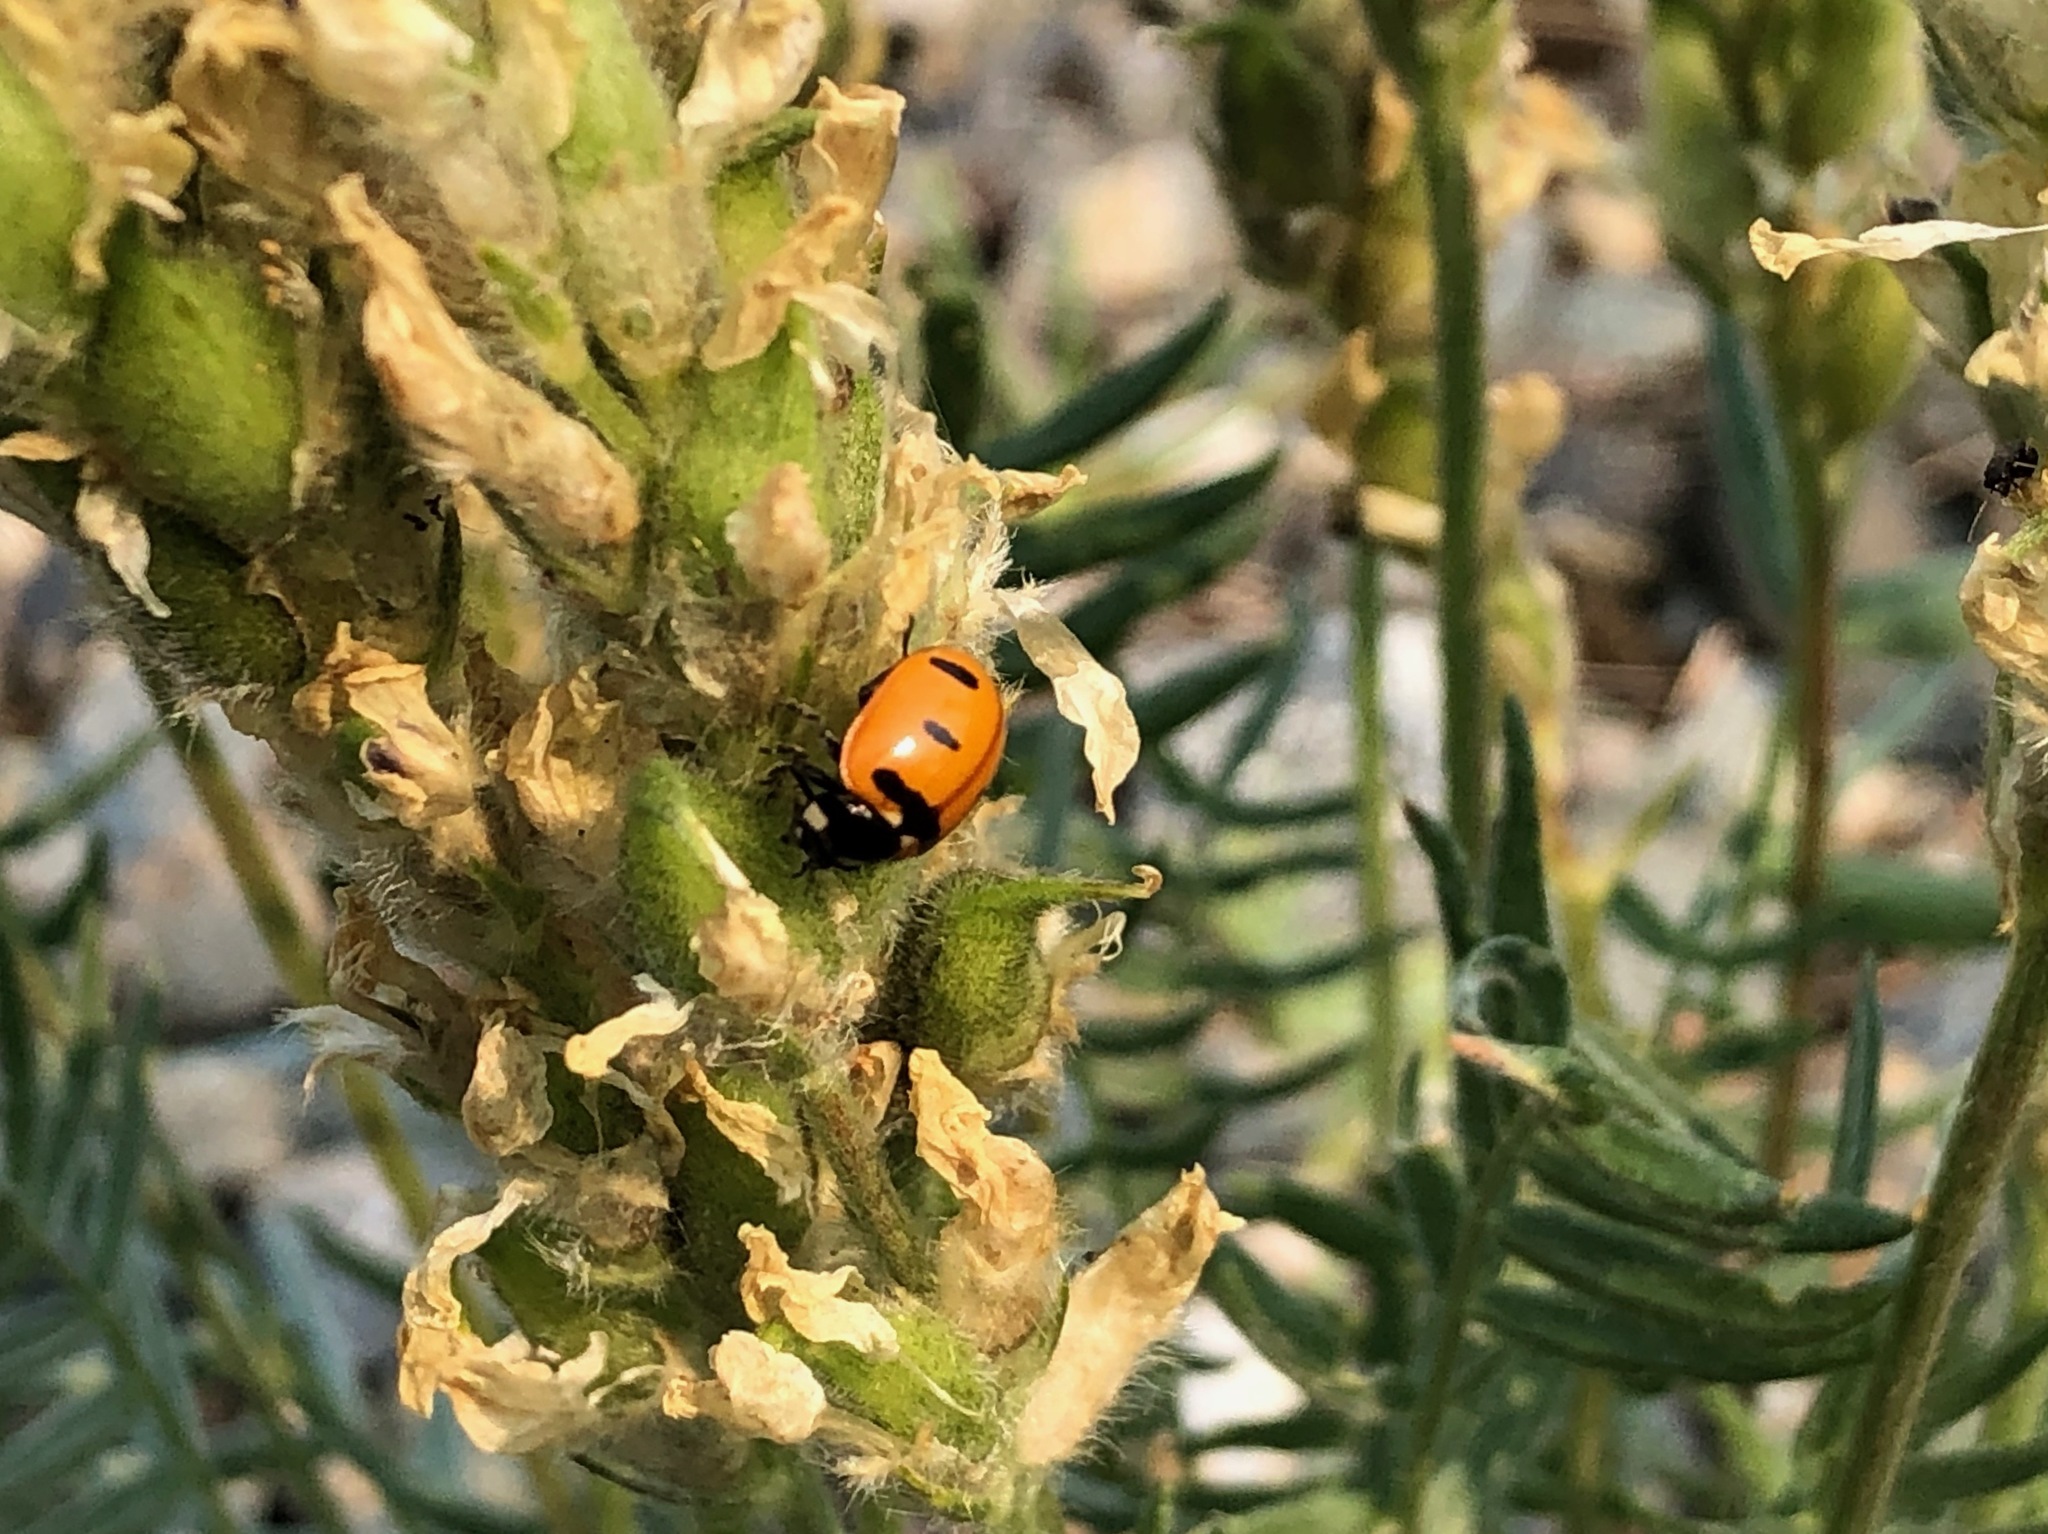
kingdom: Animalia
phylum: Arthropoda
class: Insecta
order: Coleoptera
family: Coccinellidae
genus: Coccinella
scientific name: Coccinella transversoguttata
